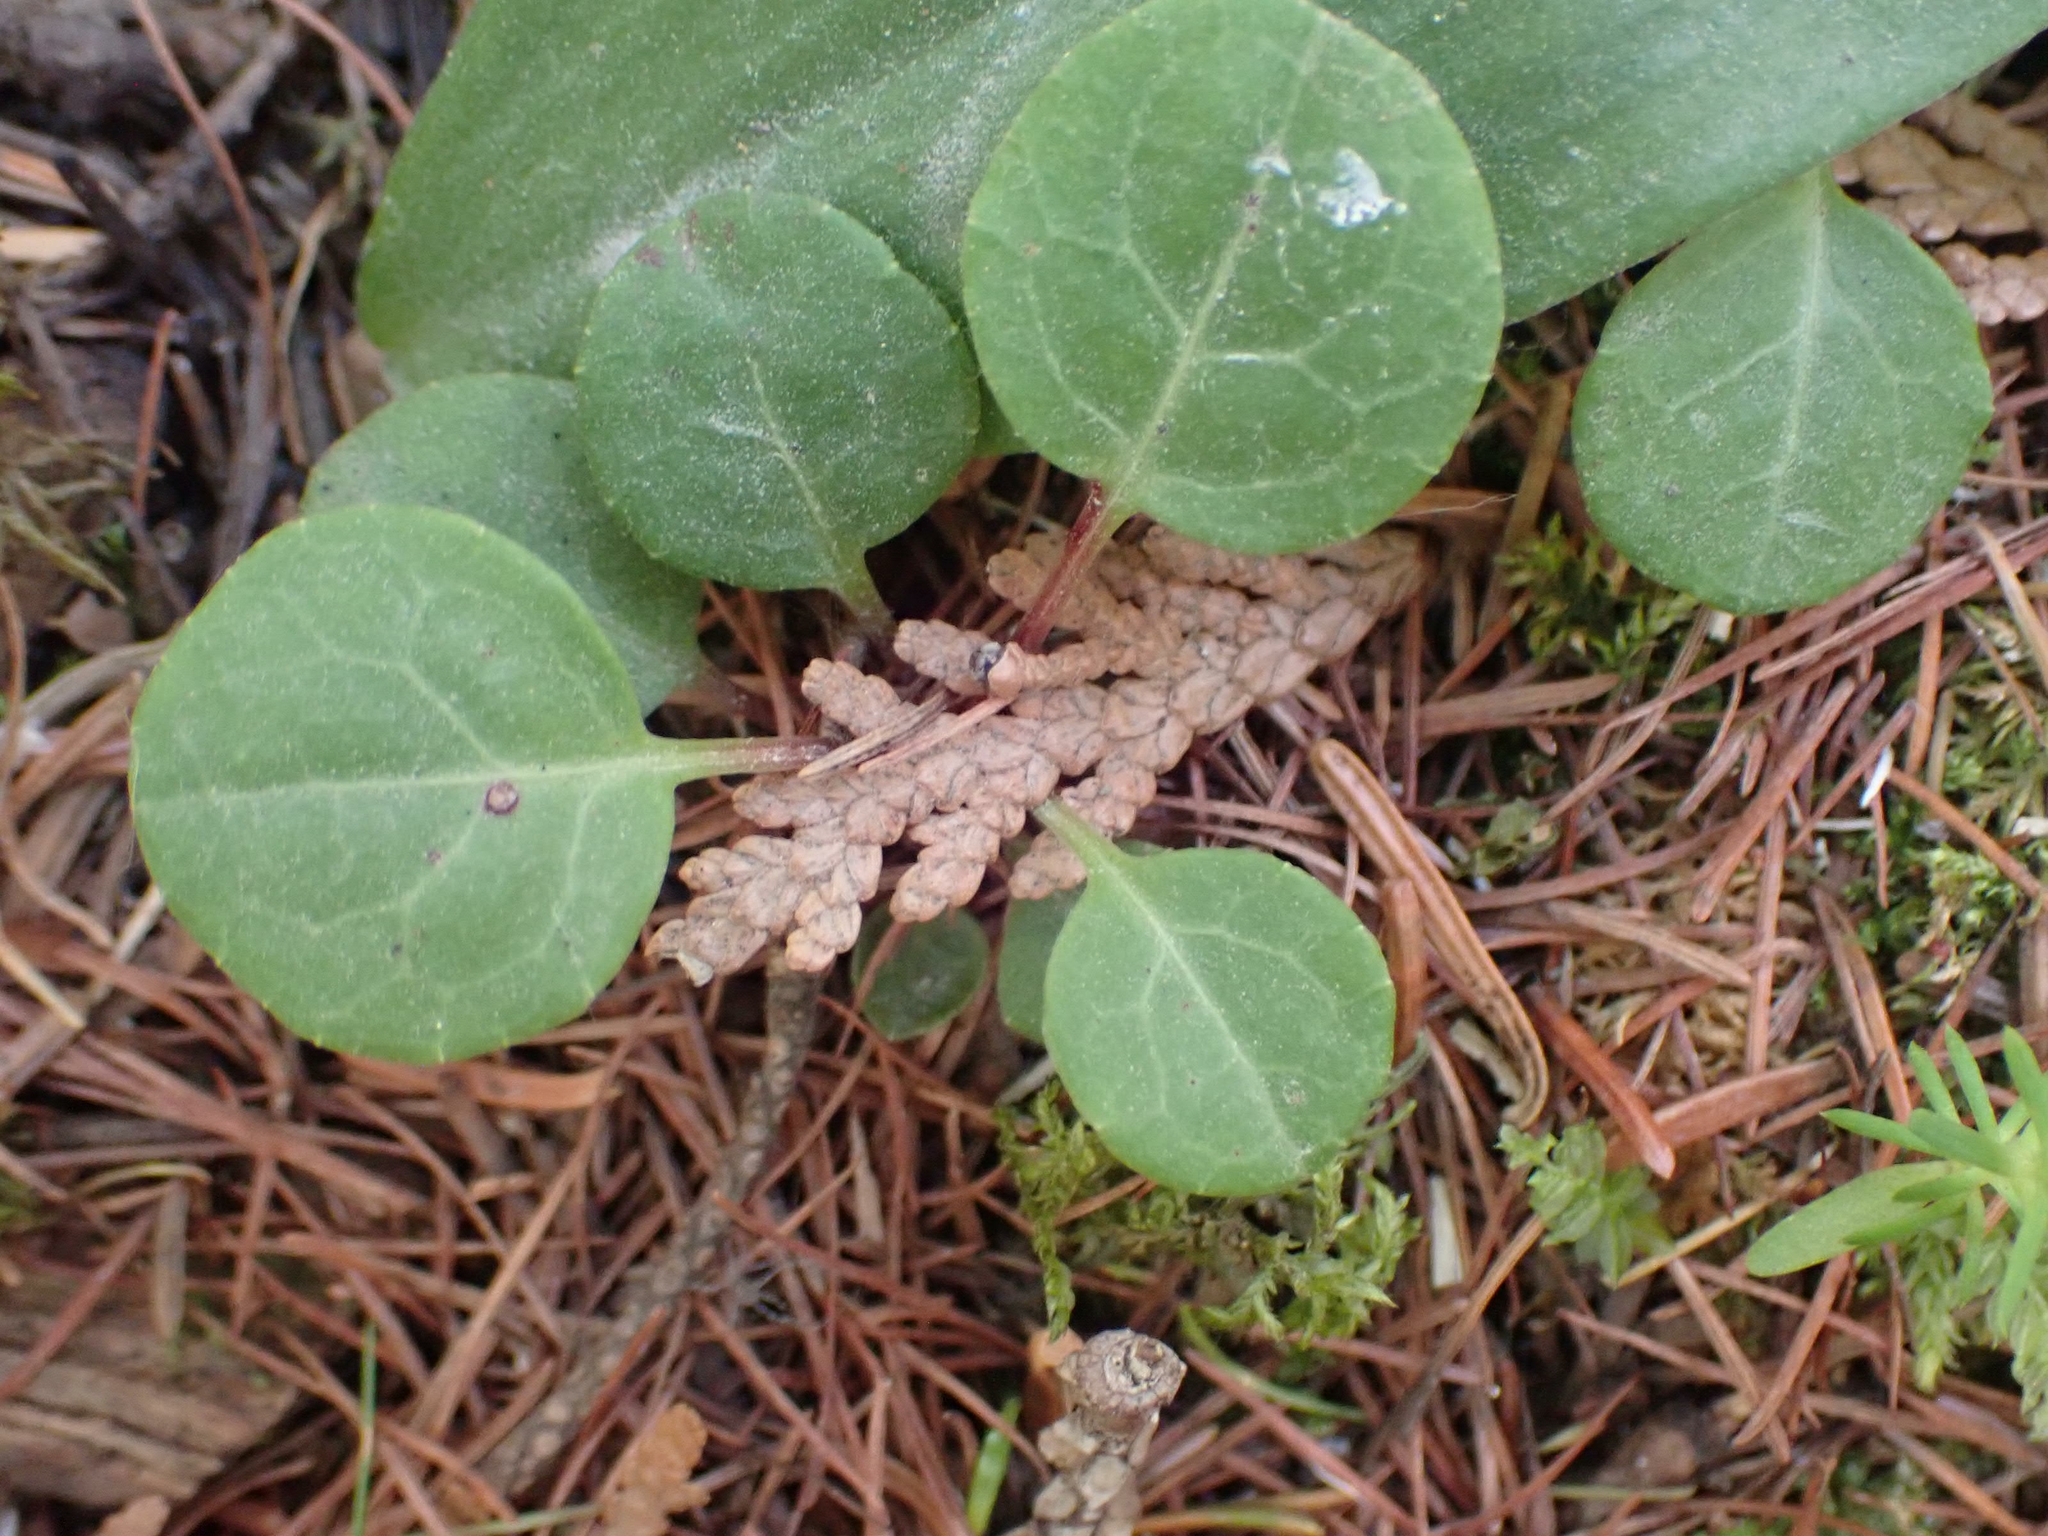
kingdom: Plantae
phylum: Tracheophyta
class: Magnoliopsida
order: Ericales
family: Ericaceae
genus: Pyrola
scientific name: Pyrola chlorantha
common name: Green wintergreen
